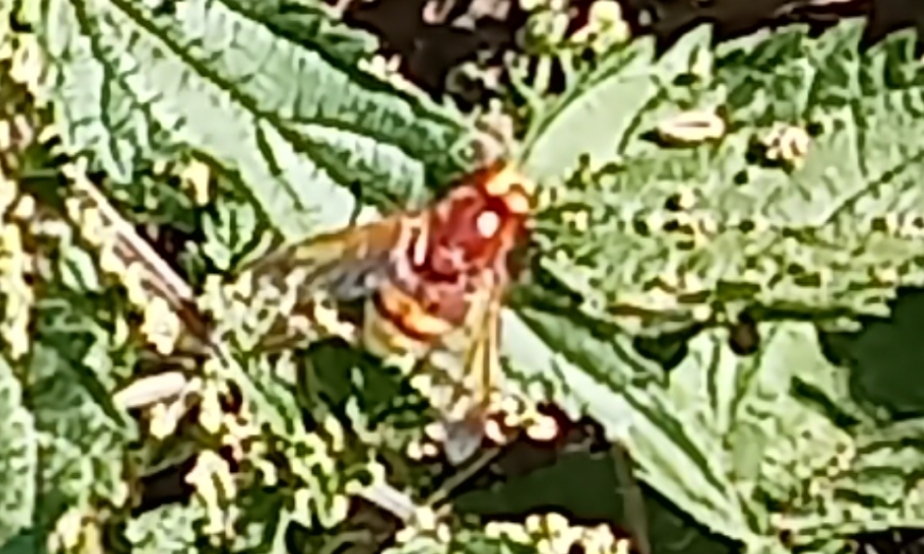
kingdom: Animalia
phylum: Arthropoda
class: Insecta
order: Diptera
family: Syrphidae
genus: Volucella
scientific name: Volucella zonaria
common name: Hornet hoverfly
